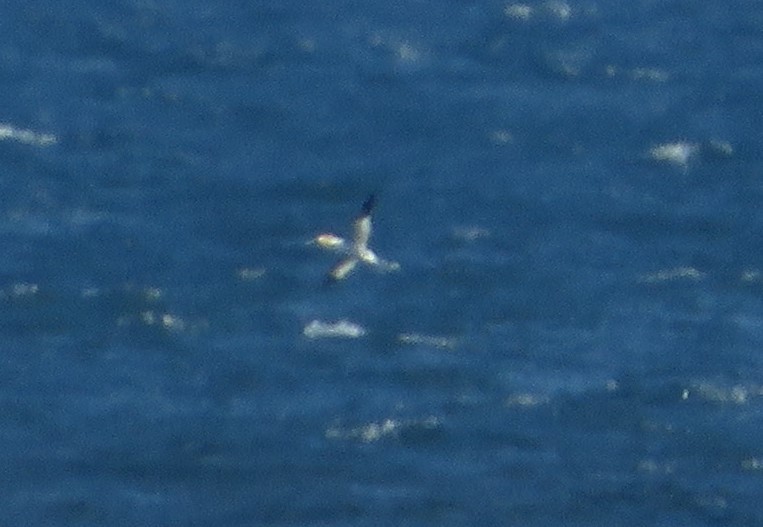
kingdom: Animalia
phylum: Chordata
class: Aves
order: Suliformes
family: Sulidae
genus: Morus
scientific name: Morus bassanus
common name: Northern gannet
